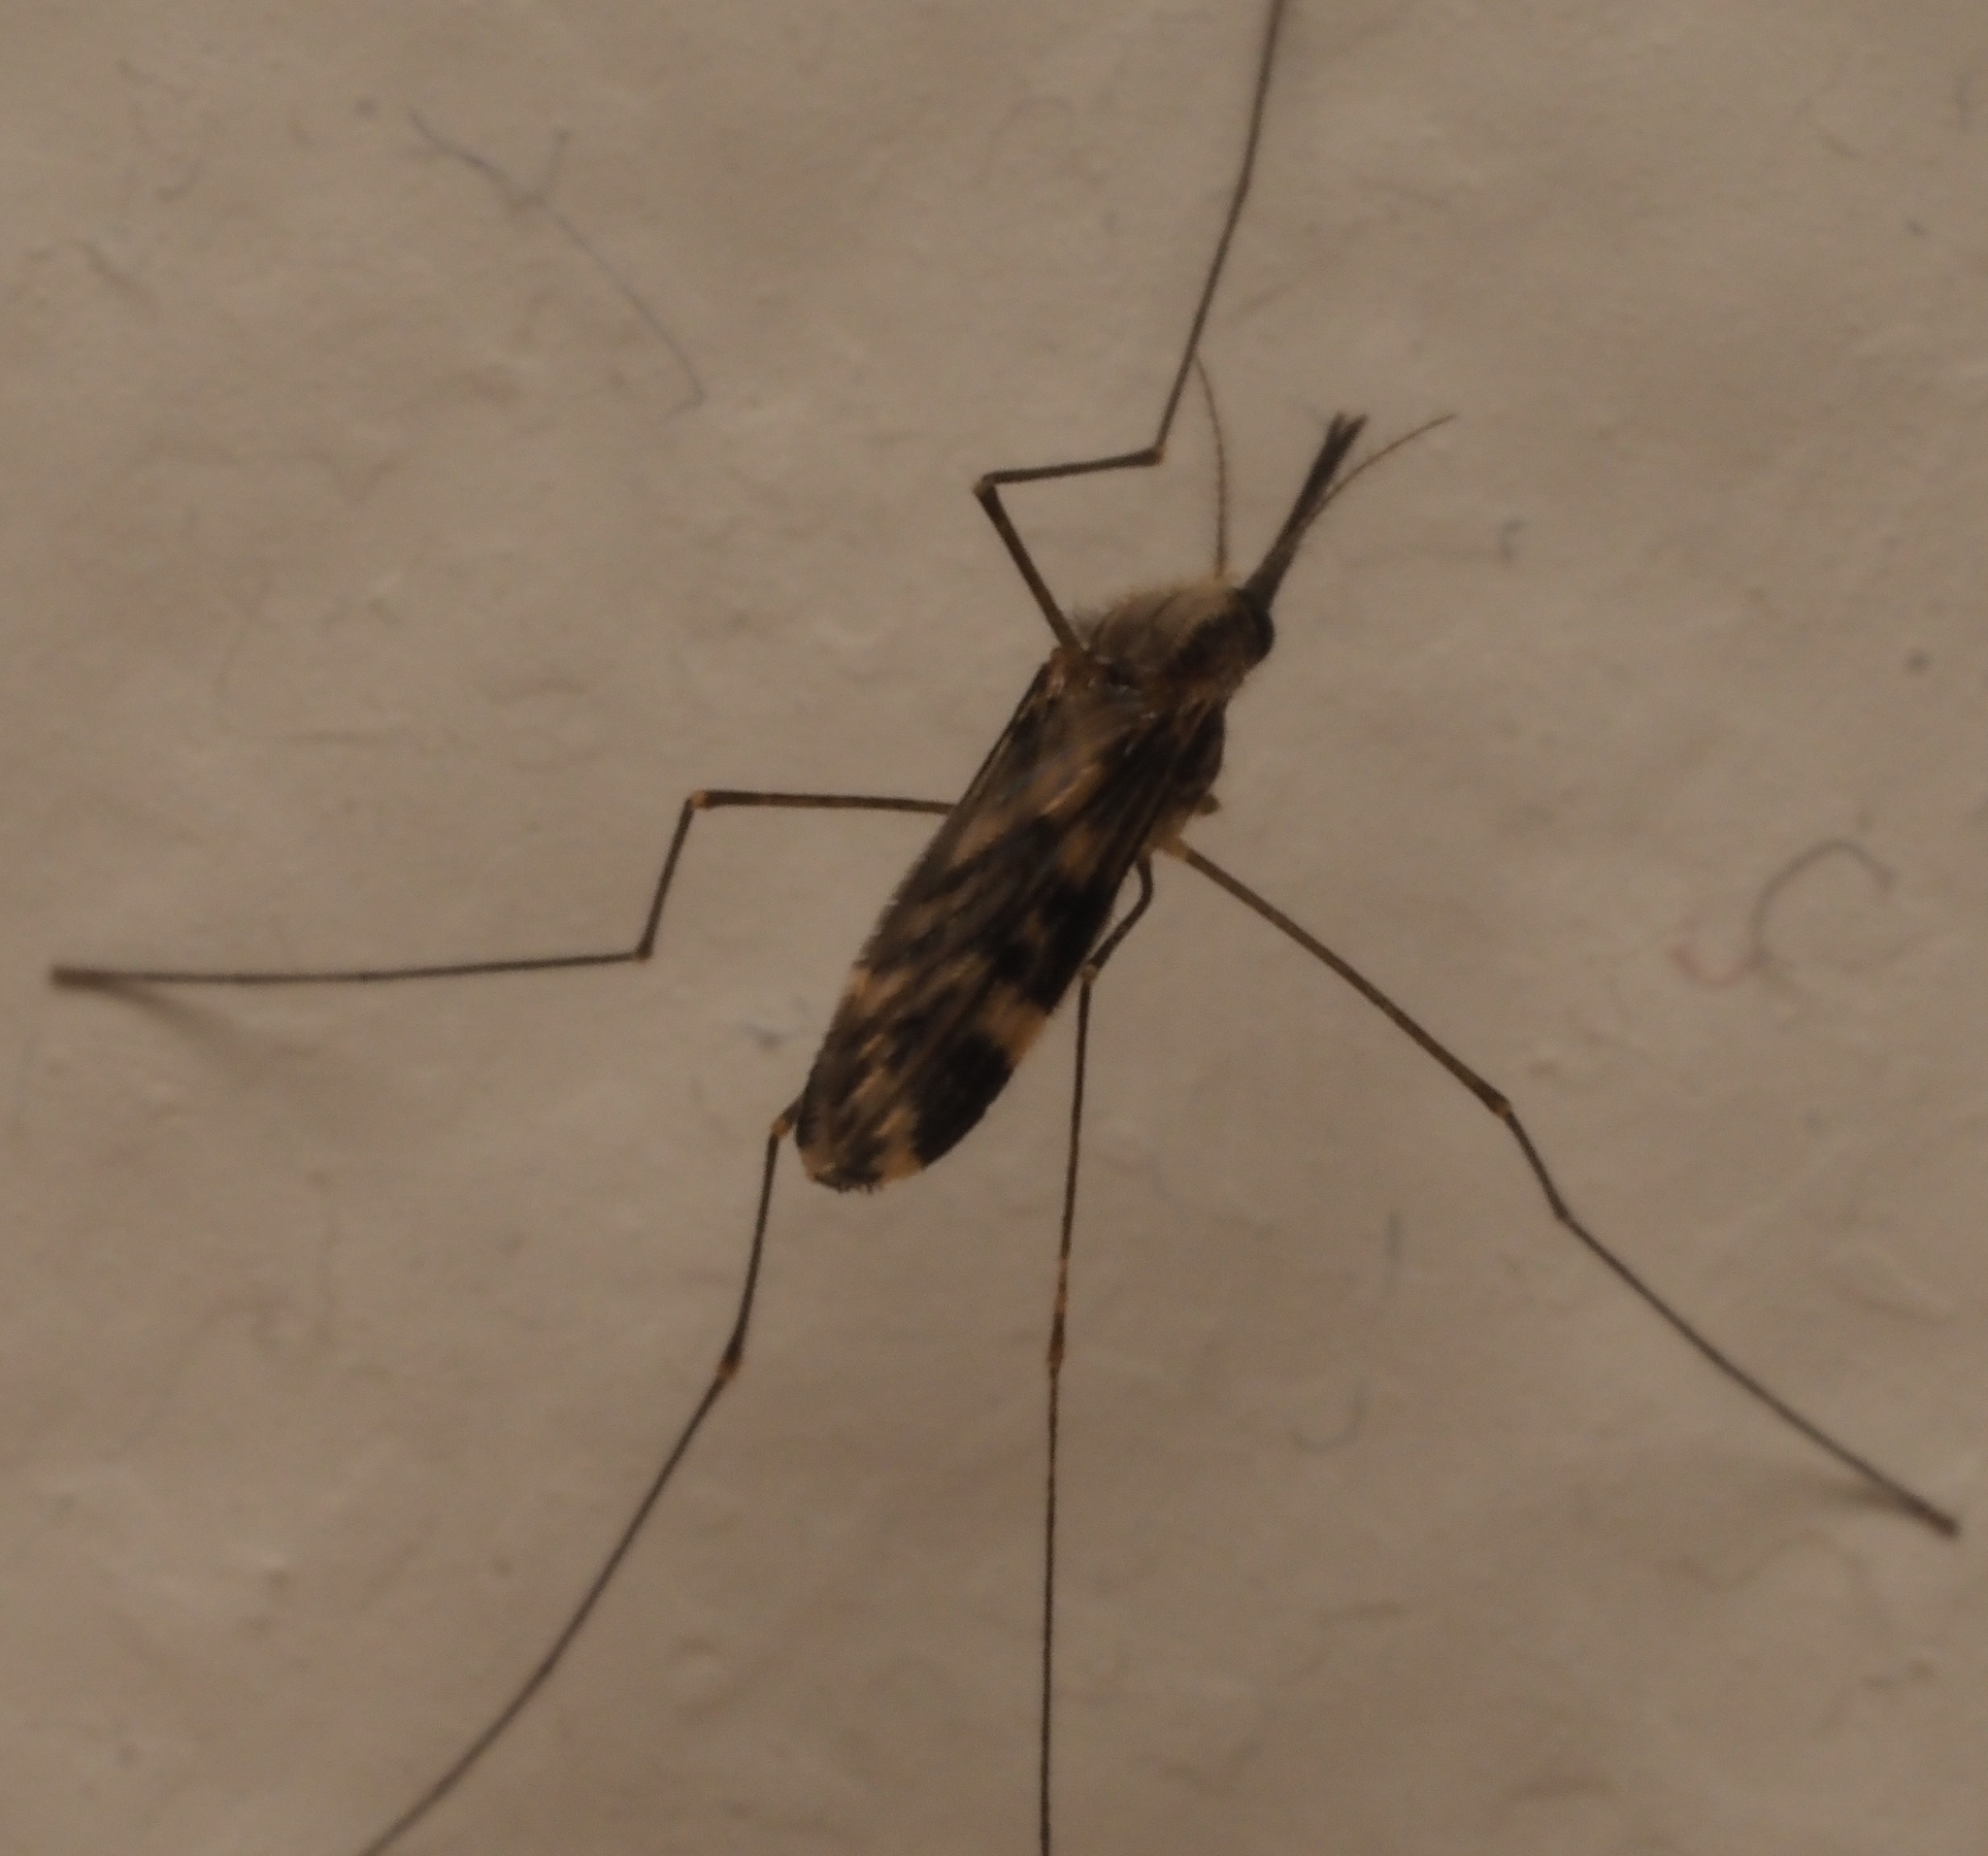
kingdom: Animalia
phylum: Arthropoda
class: Insecta
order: Diptera
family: Culicidae
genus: Anopheles
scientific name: Anopheles punctipennis
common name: Woodland malaria mosquito
